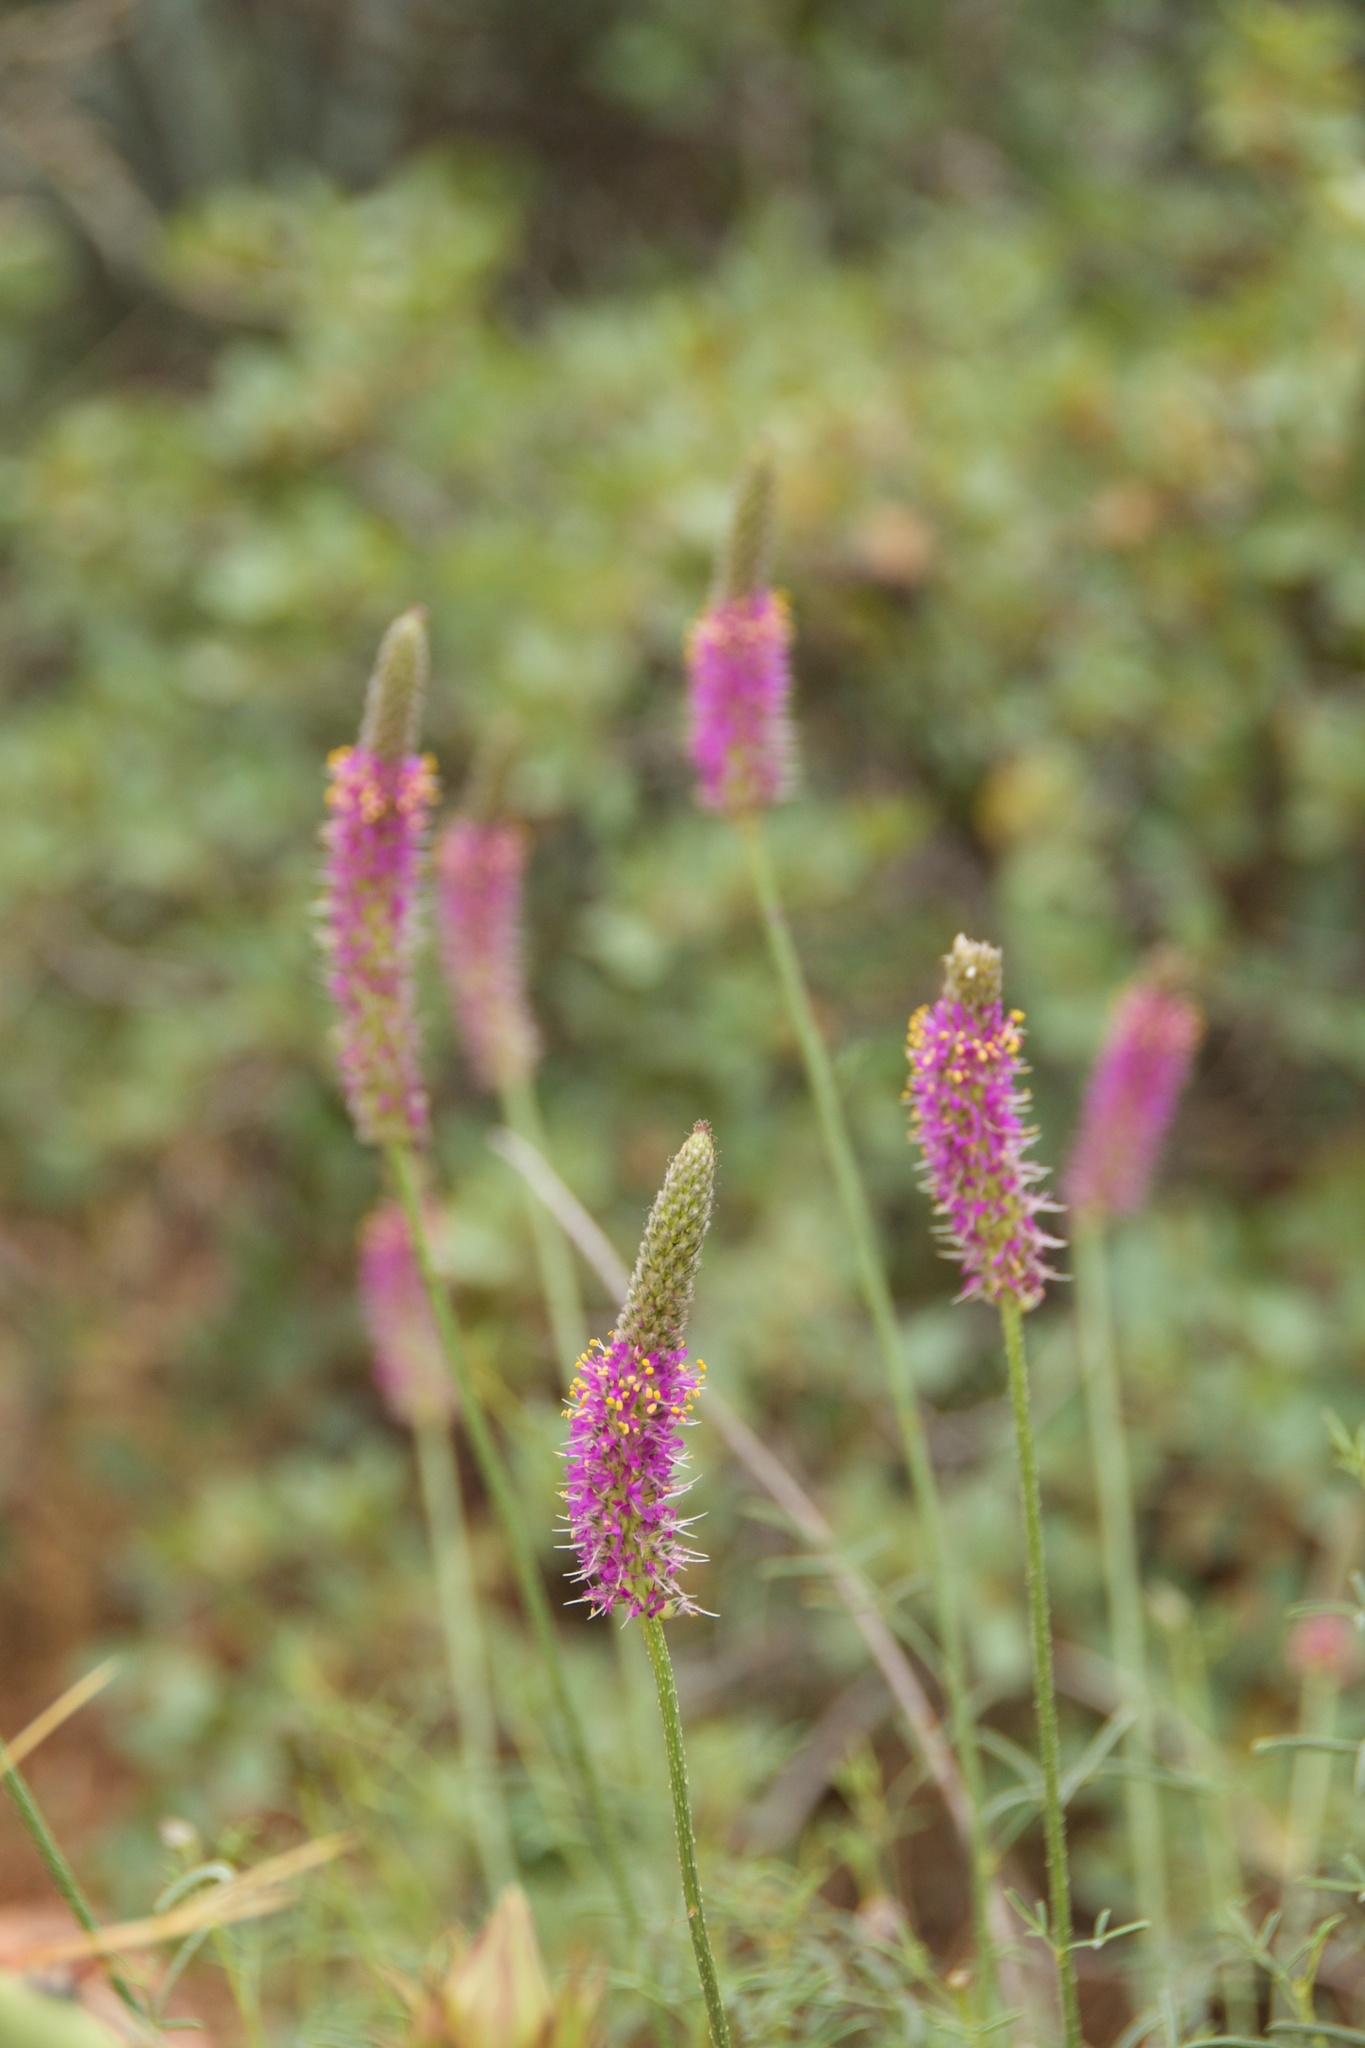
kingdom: Plantae
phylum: Tracheophyta
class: Magnoliopsida
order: Fabales
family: Fabaceae
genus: Dalea
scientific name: Dalea searlsiae
